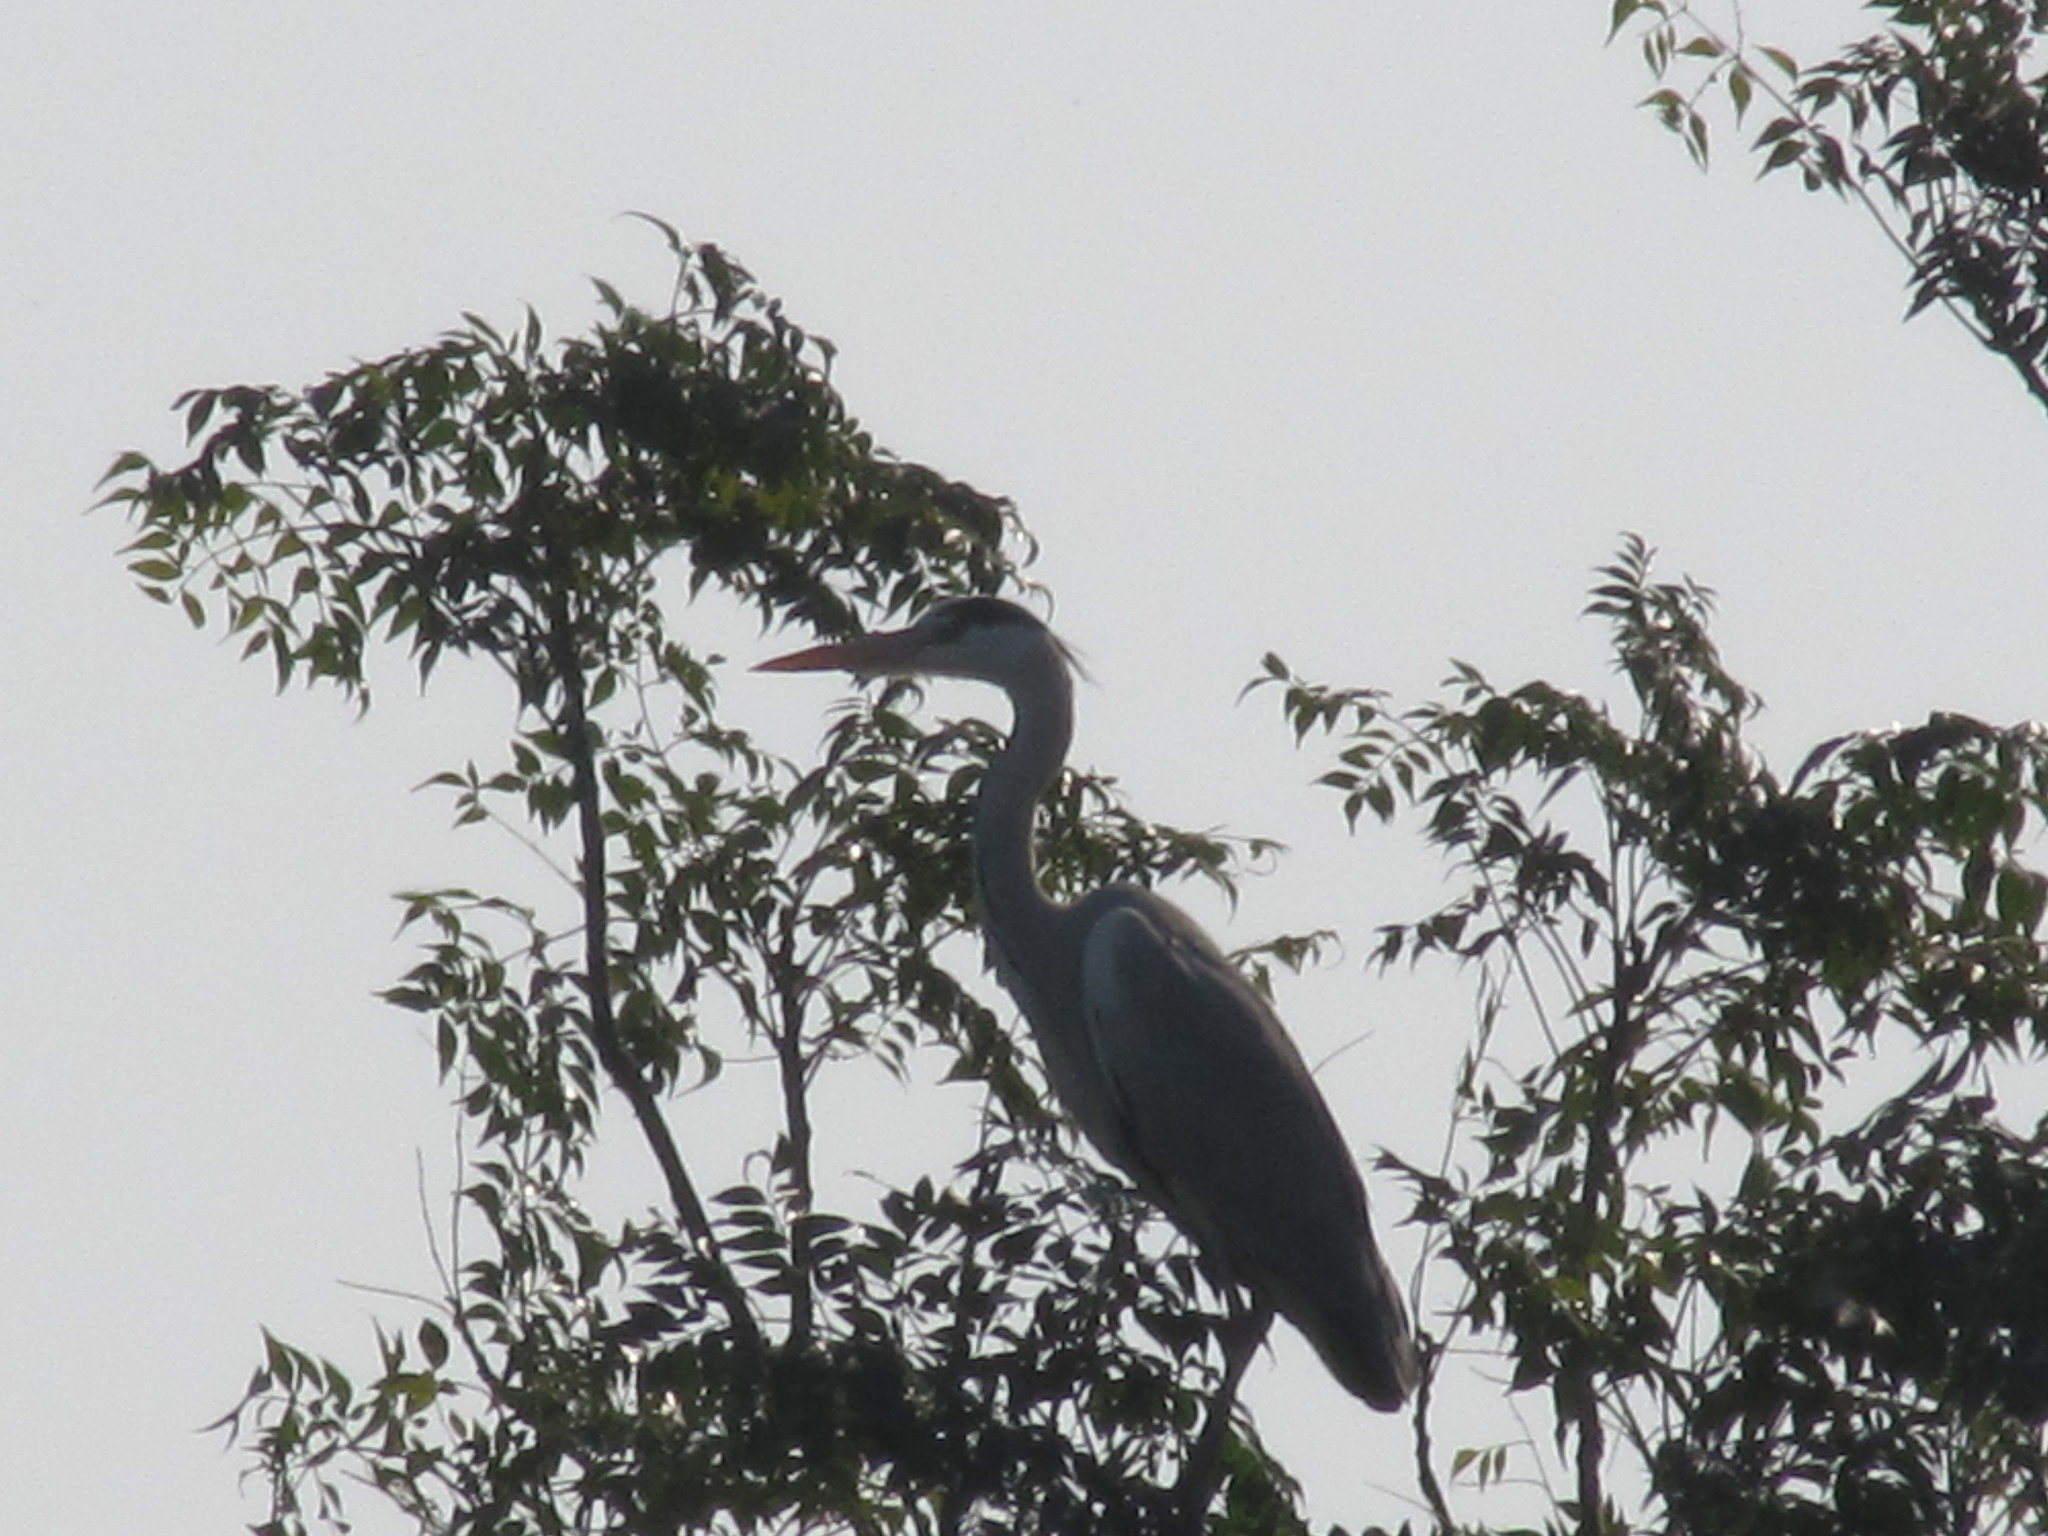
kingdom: Animalia
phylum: Chordata
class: Aves
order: Pelecaniformes
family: Ardeidae
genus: Ardea
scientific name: Ardea cinerea
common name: Grey heron
